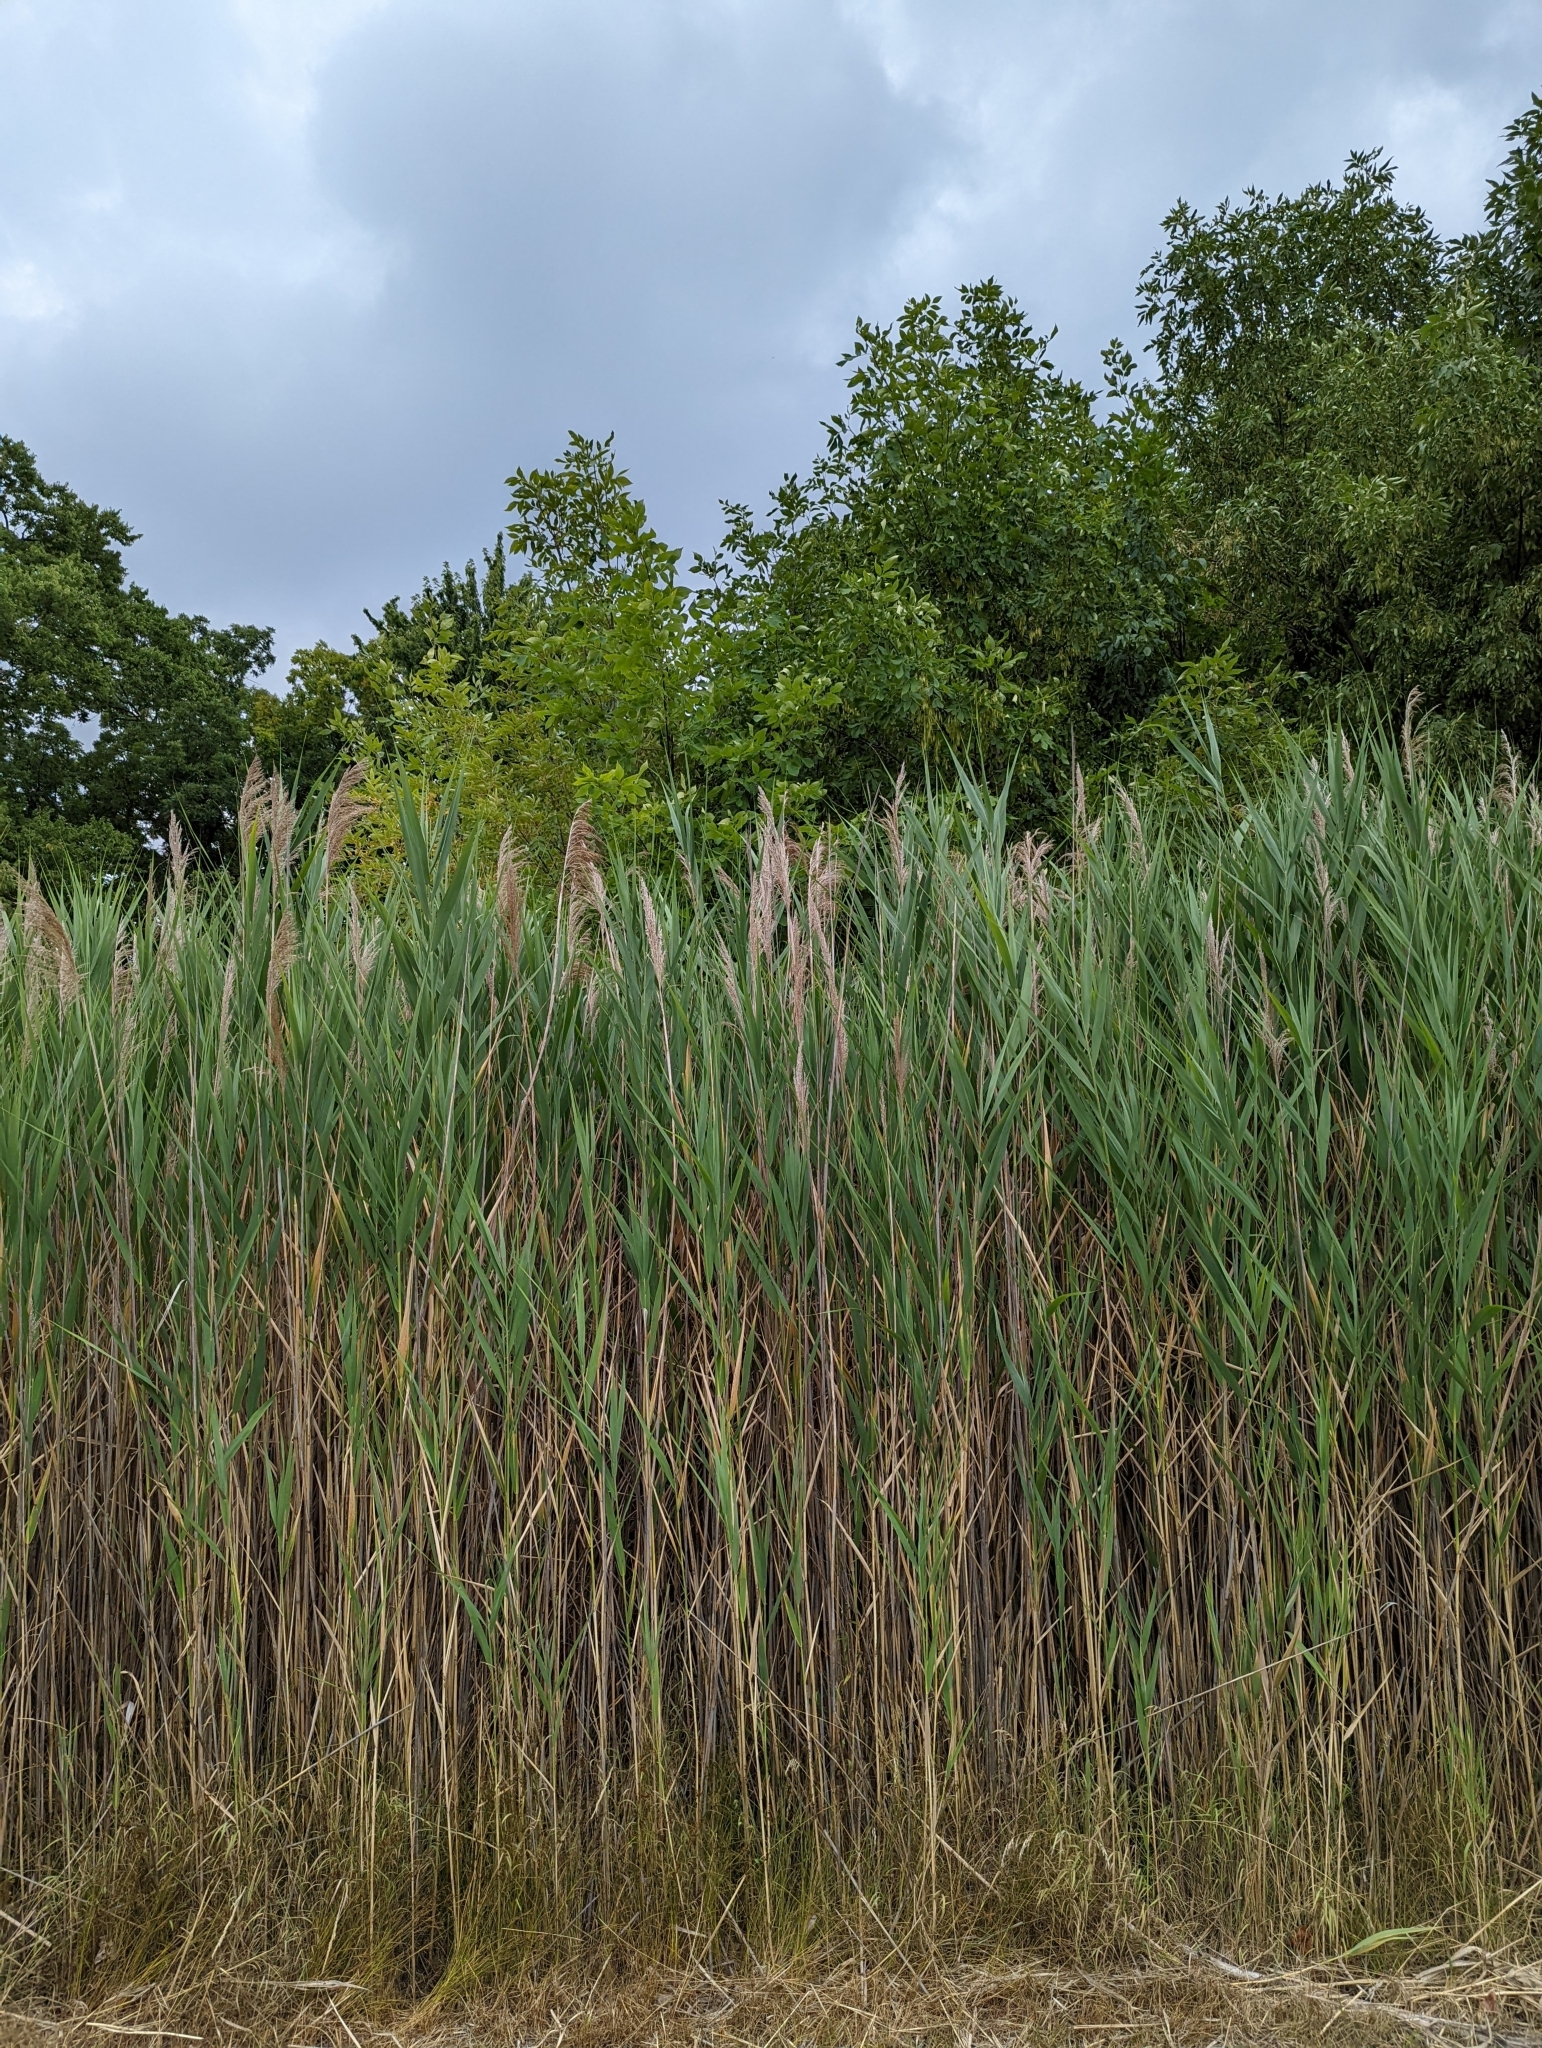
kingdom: Plantae
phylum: Tracheophyta
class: Liliopsida
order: Poales
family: Poaceae
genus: Phragmites
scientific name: Phragmites australis
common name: Common reed
